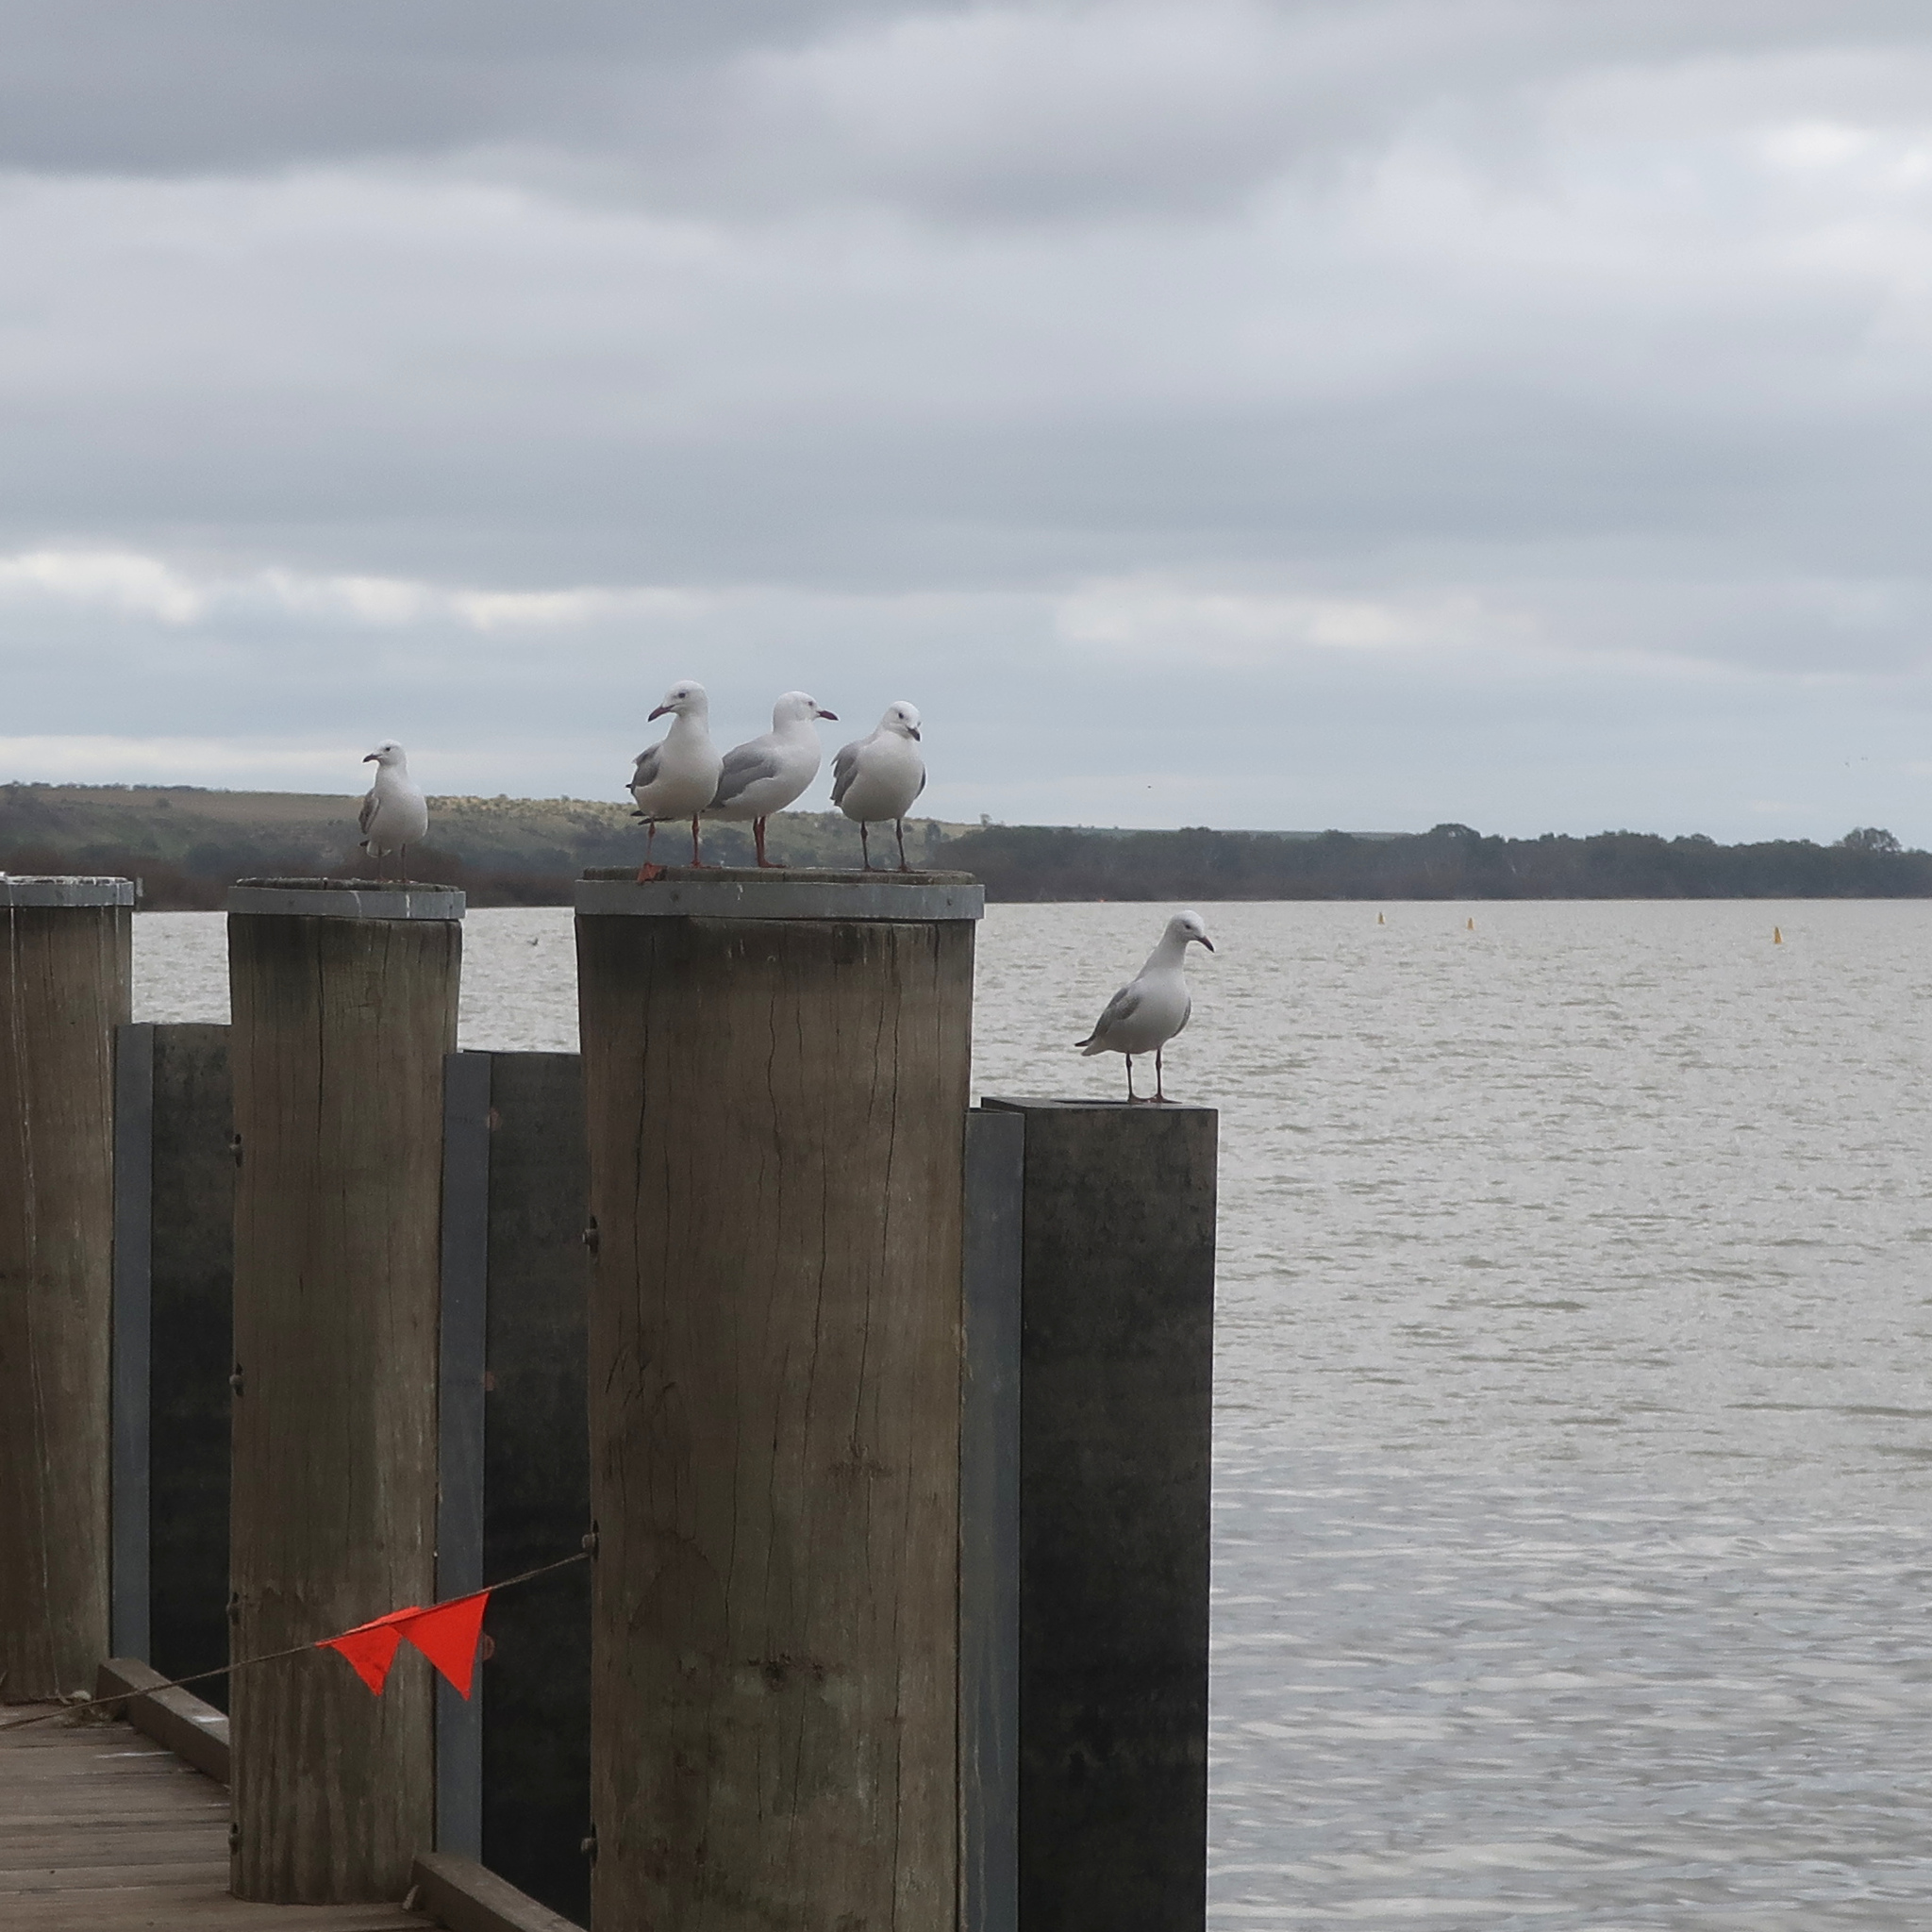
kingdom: Animalia
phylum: Chordata
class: Aves
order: Charadriiformes
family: Laridae
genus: Chroicocephalus
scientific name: Chroicocephalus novaehollandiae
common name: Silver gull
